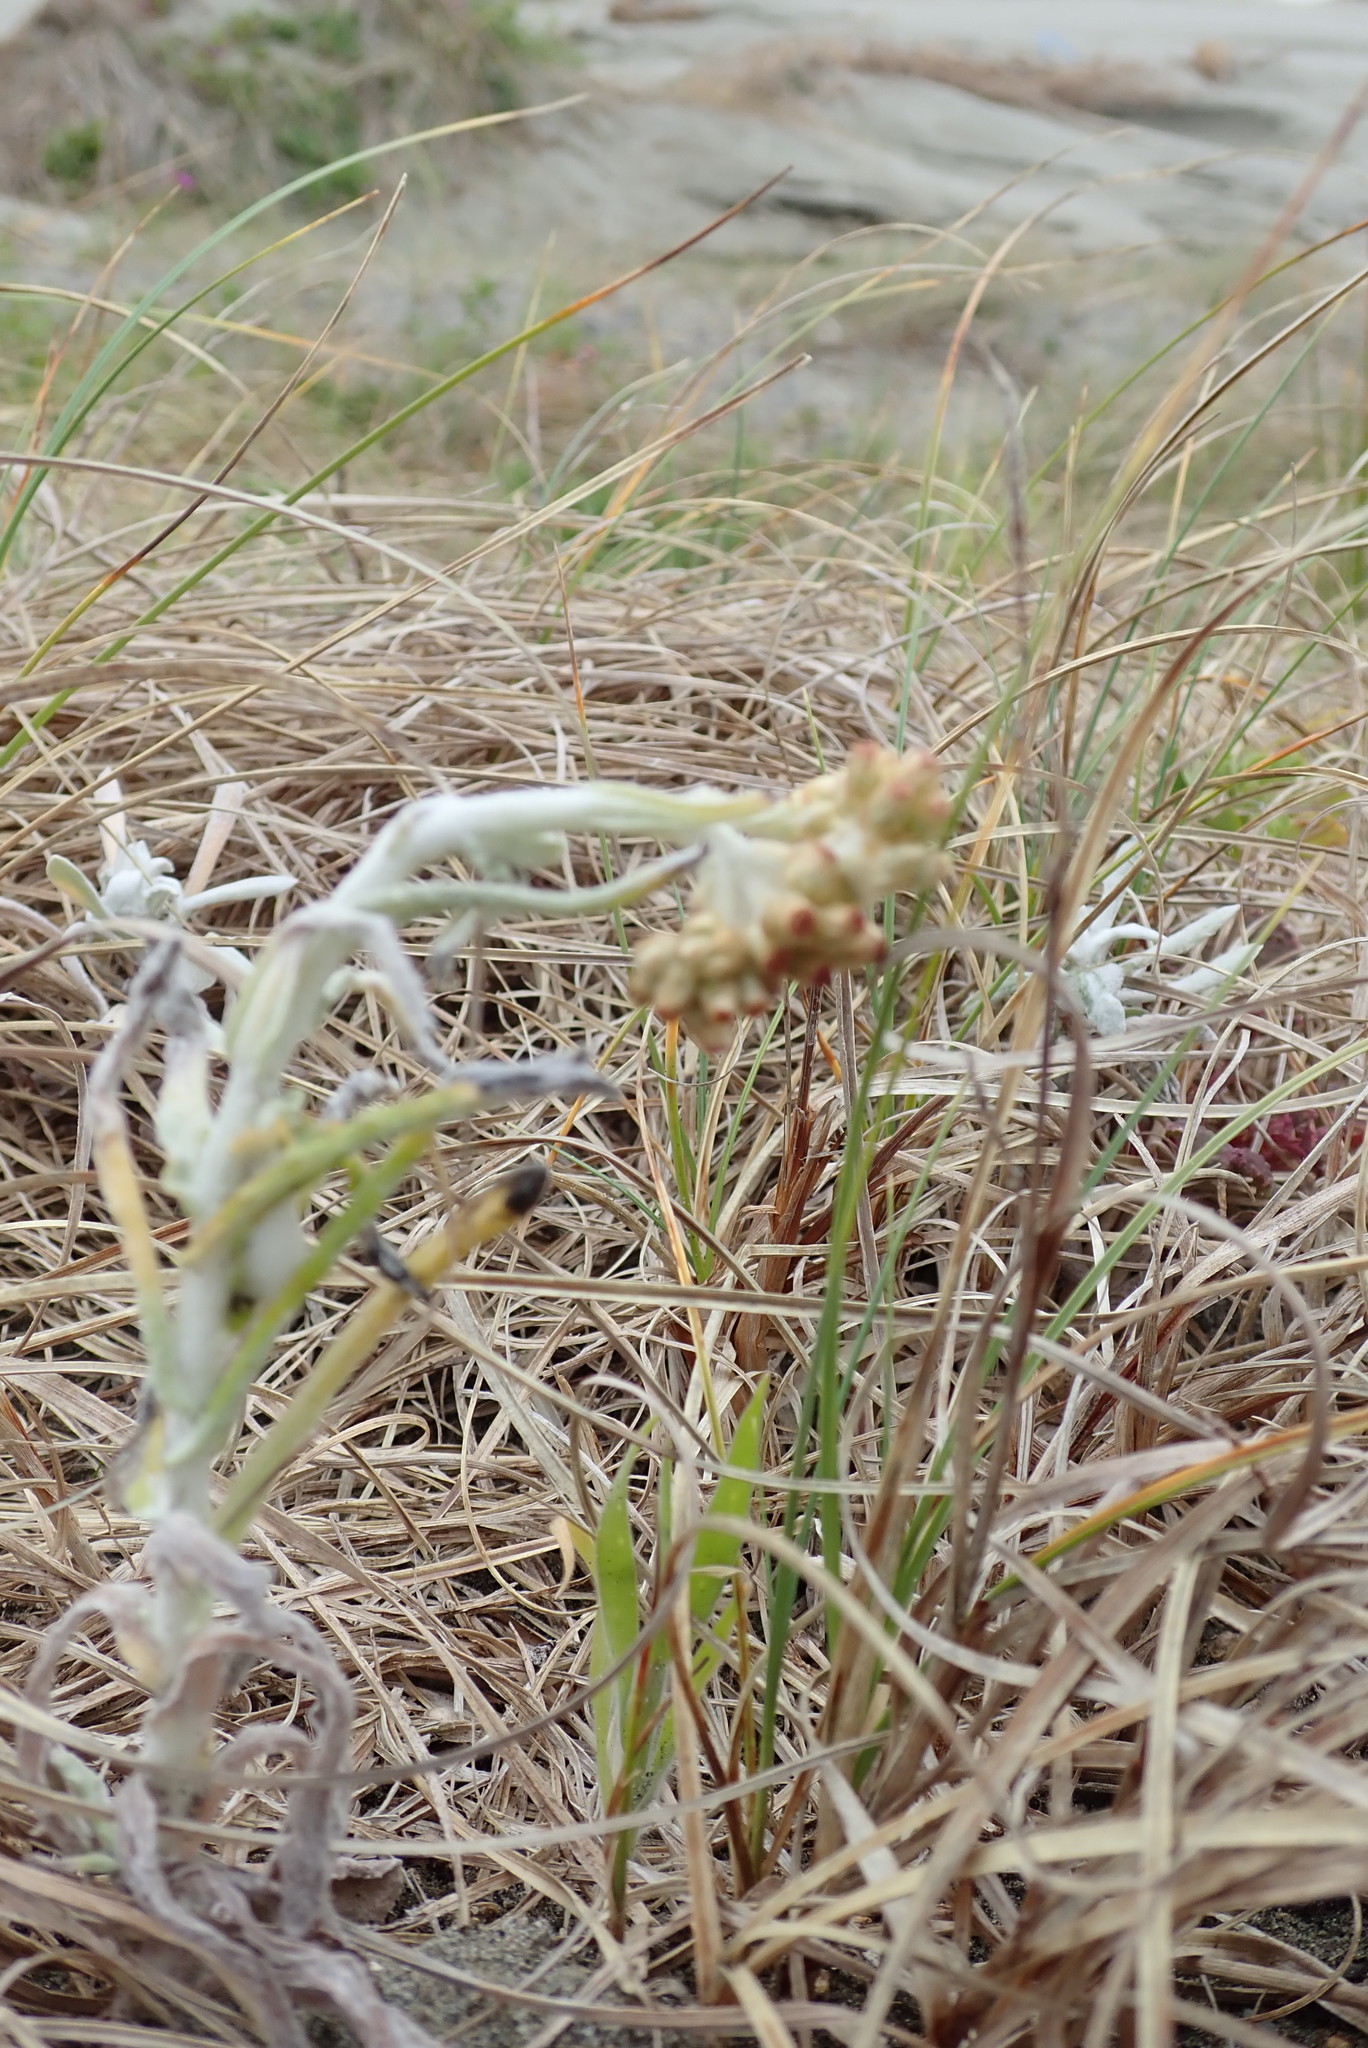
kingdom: Plantae
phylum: Tracheophyta
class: Magnoliopsida
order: Asterales
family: Asteraceae
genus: Helichrysum
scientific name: Helichrysum luteoalbum
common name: Daisy
